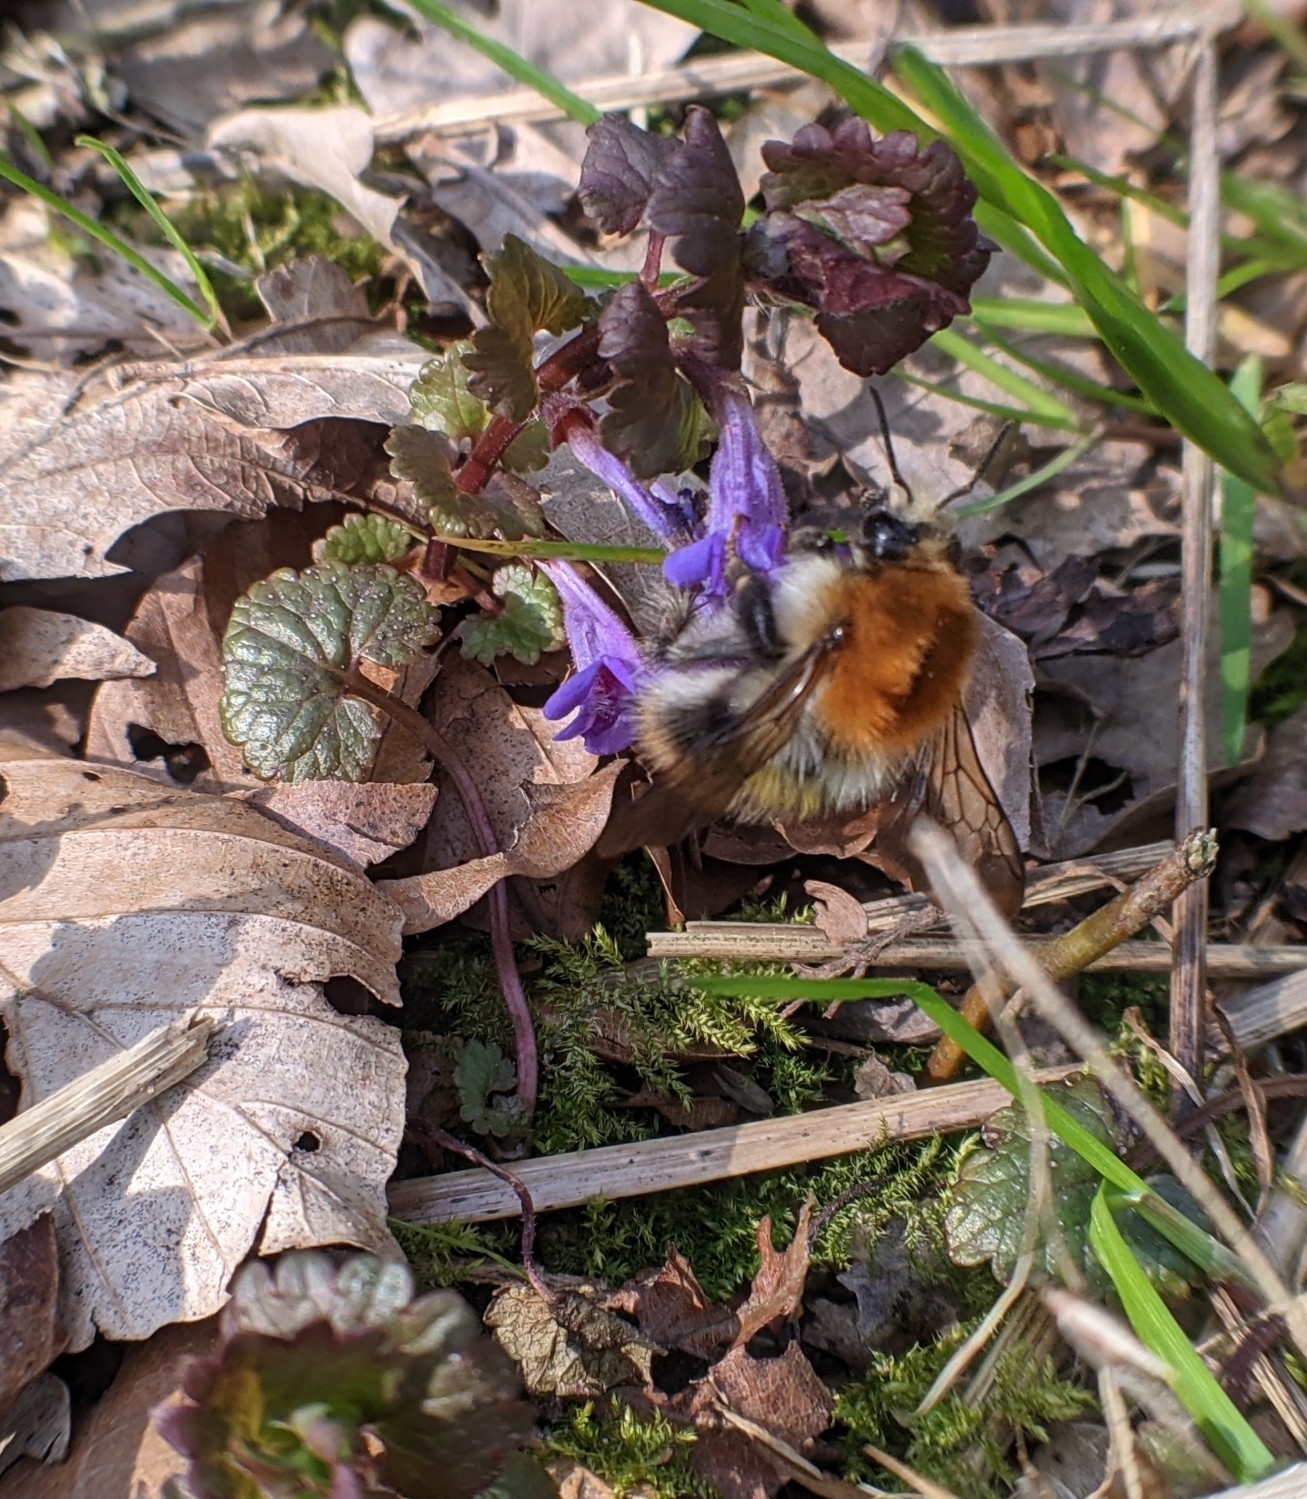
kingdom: Animalia
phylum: Arthropoda
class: Insecta
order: Hymenoptera
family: Apidae
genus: Bombus
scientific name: Bombus pascuorum
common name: Common carder bee
